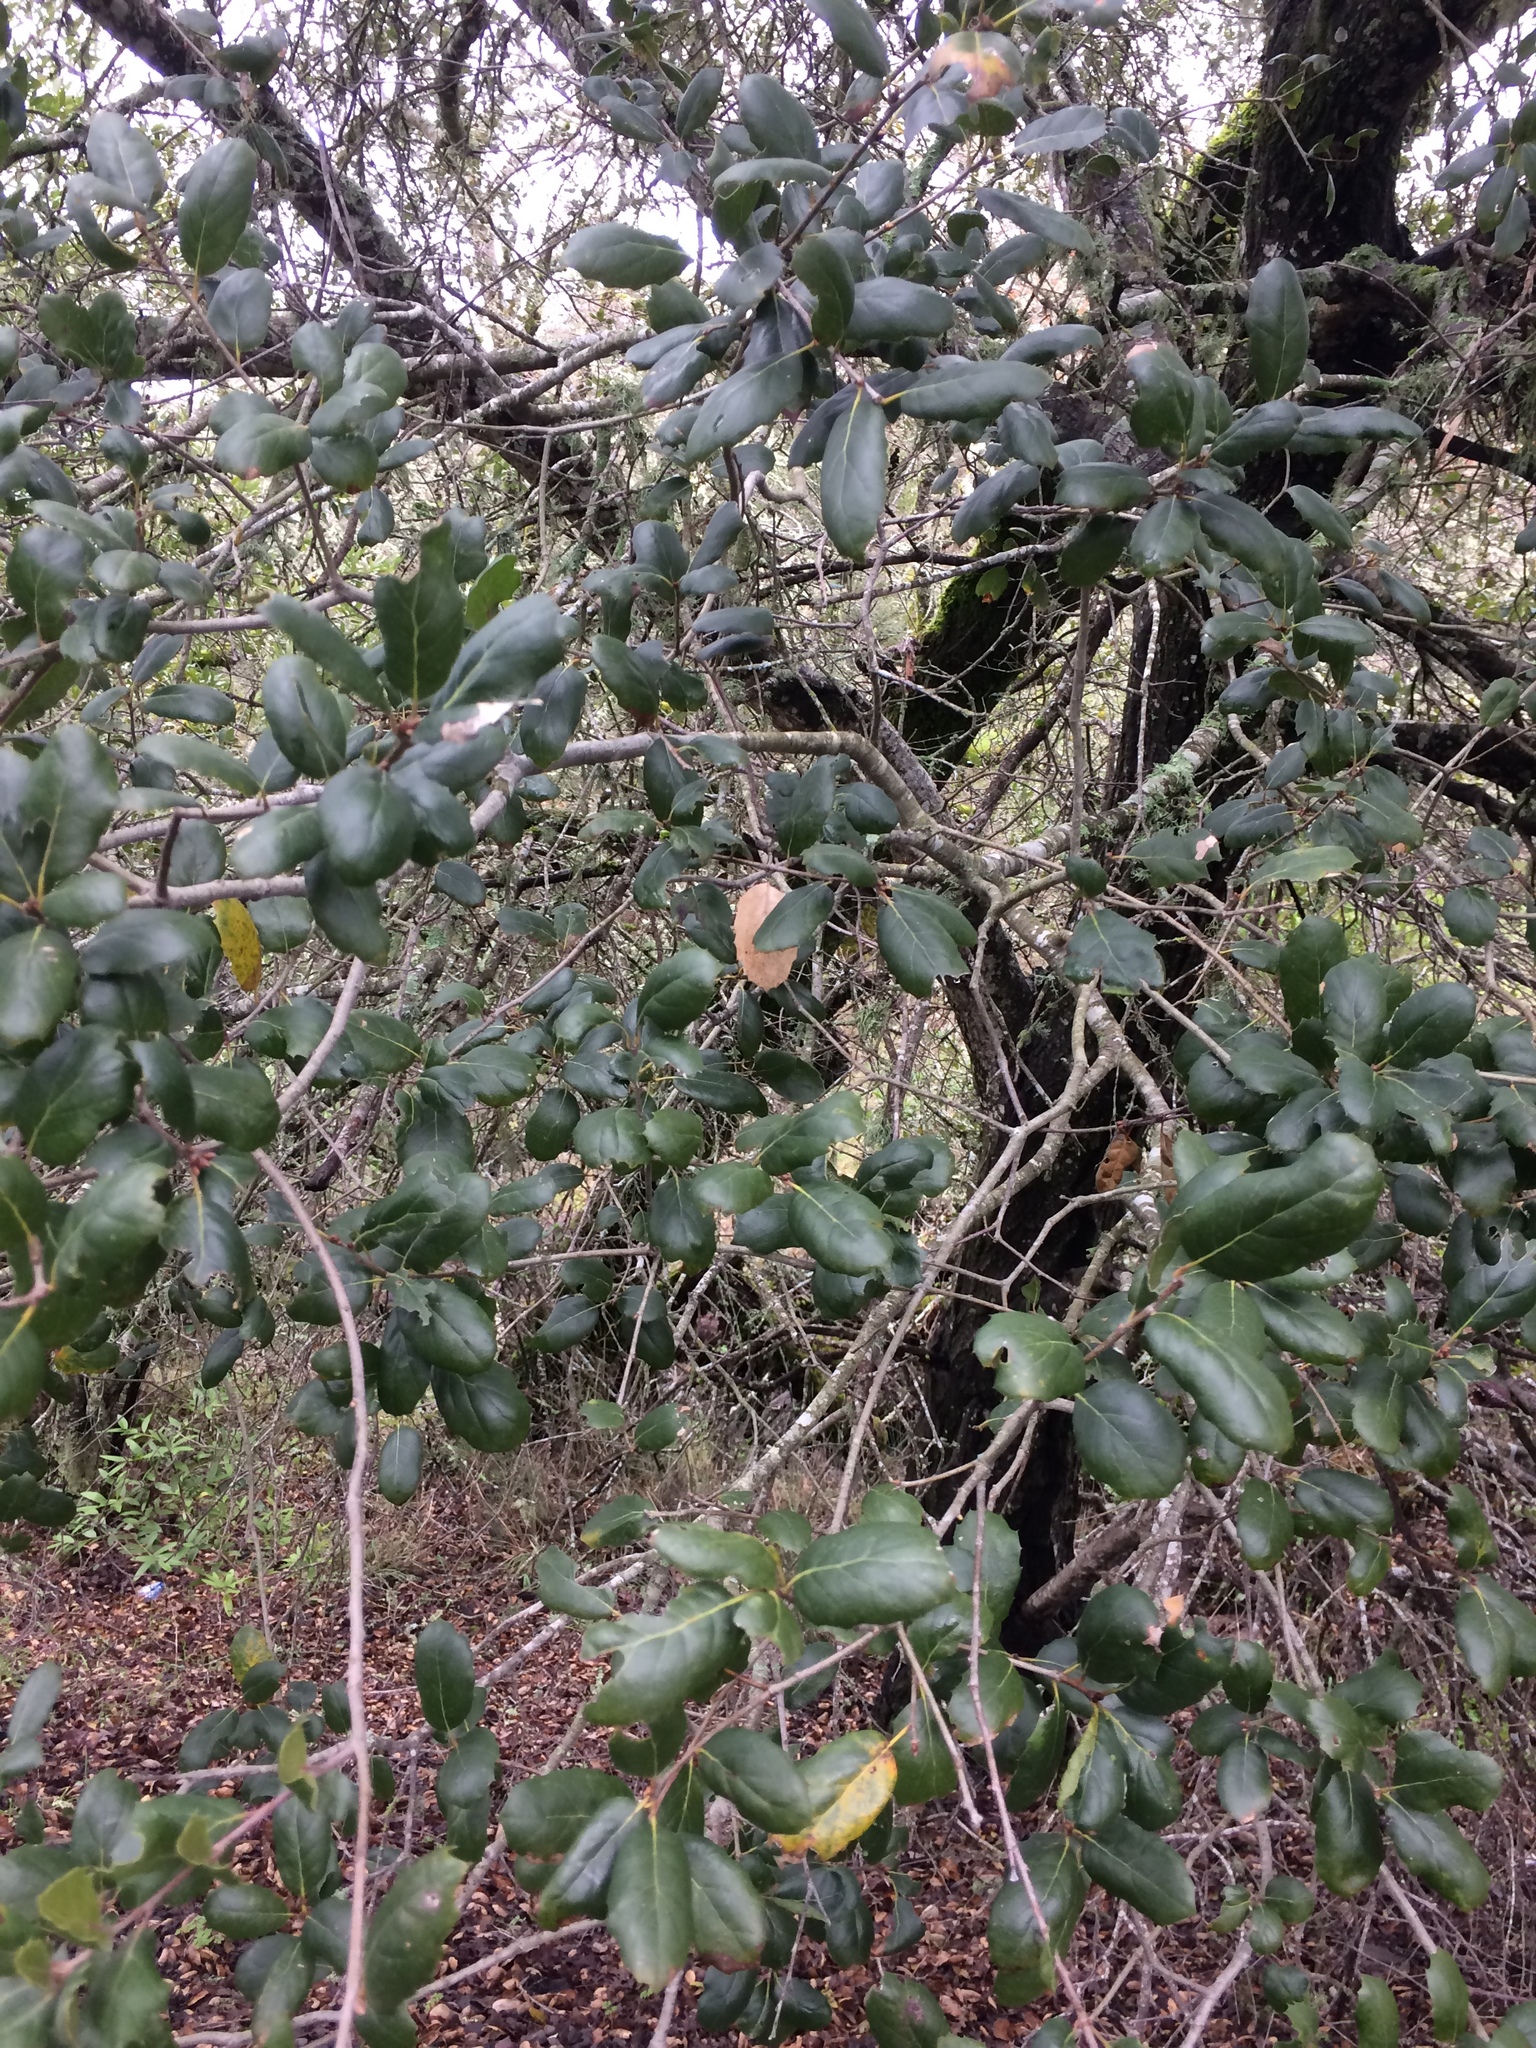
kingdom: Plantae
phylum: Tracheophyta
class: Magnoliopsida
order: Fagales
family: Fagaceae
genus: Quercus
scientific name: Quercus agrifolia
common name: California live oak
